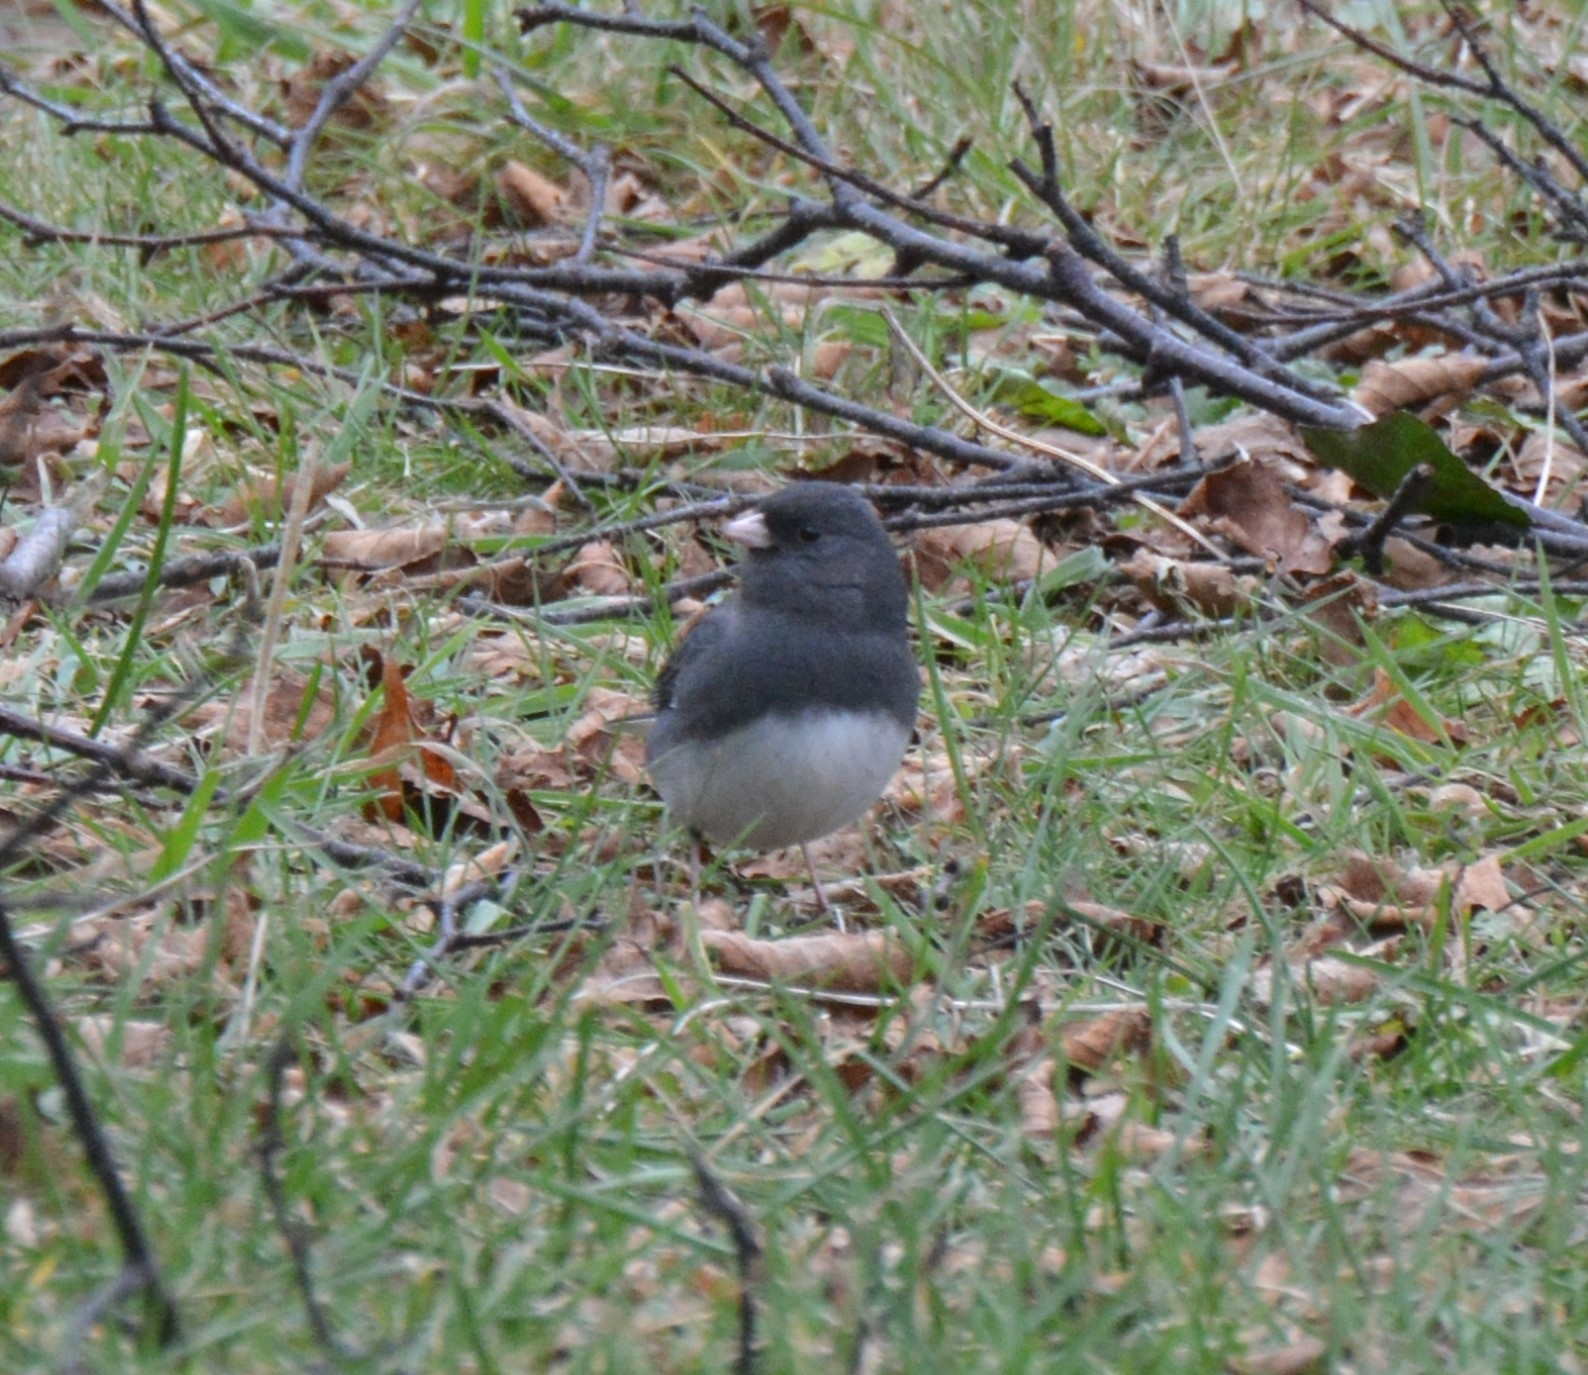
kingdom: Animalia
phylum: Chordata
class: Aves
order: Passeriformes
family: Passerellidae
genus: Junco
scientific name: Junco hyemalis
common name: Dark-eyed junco
